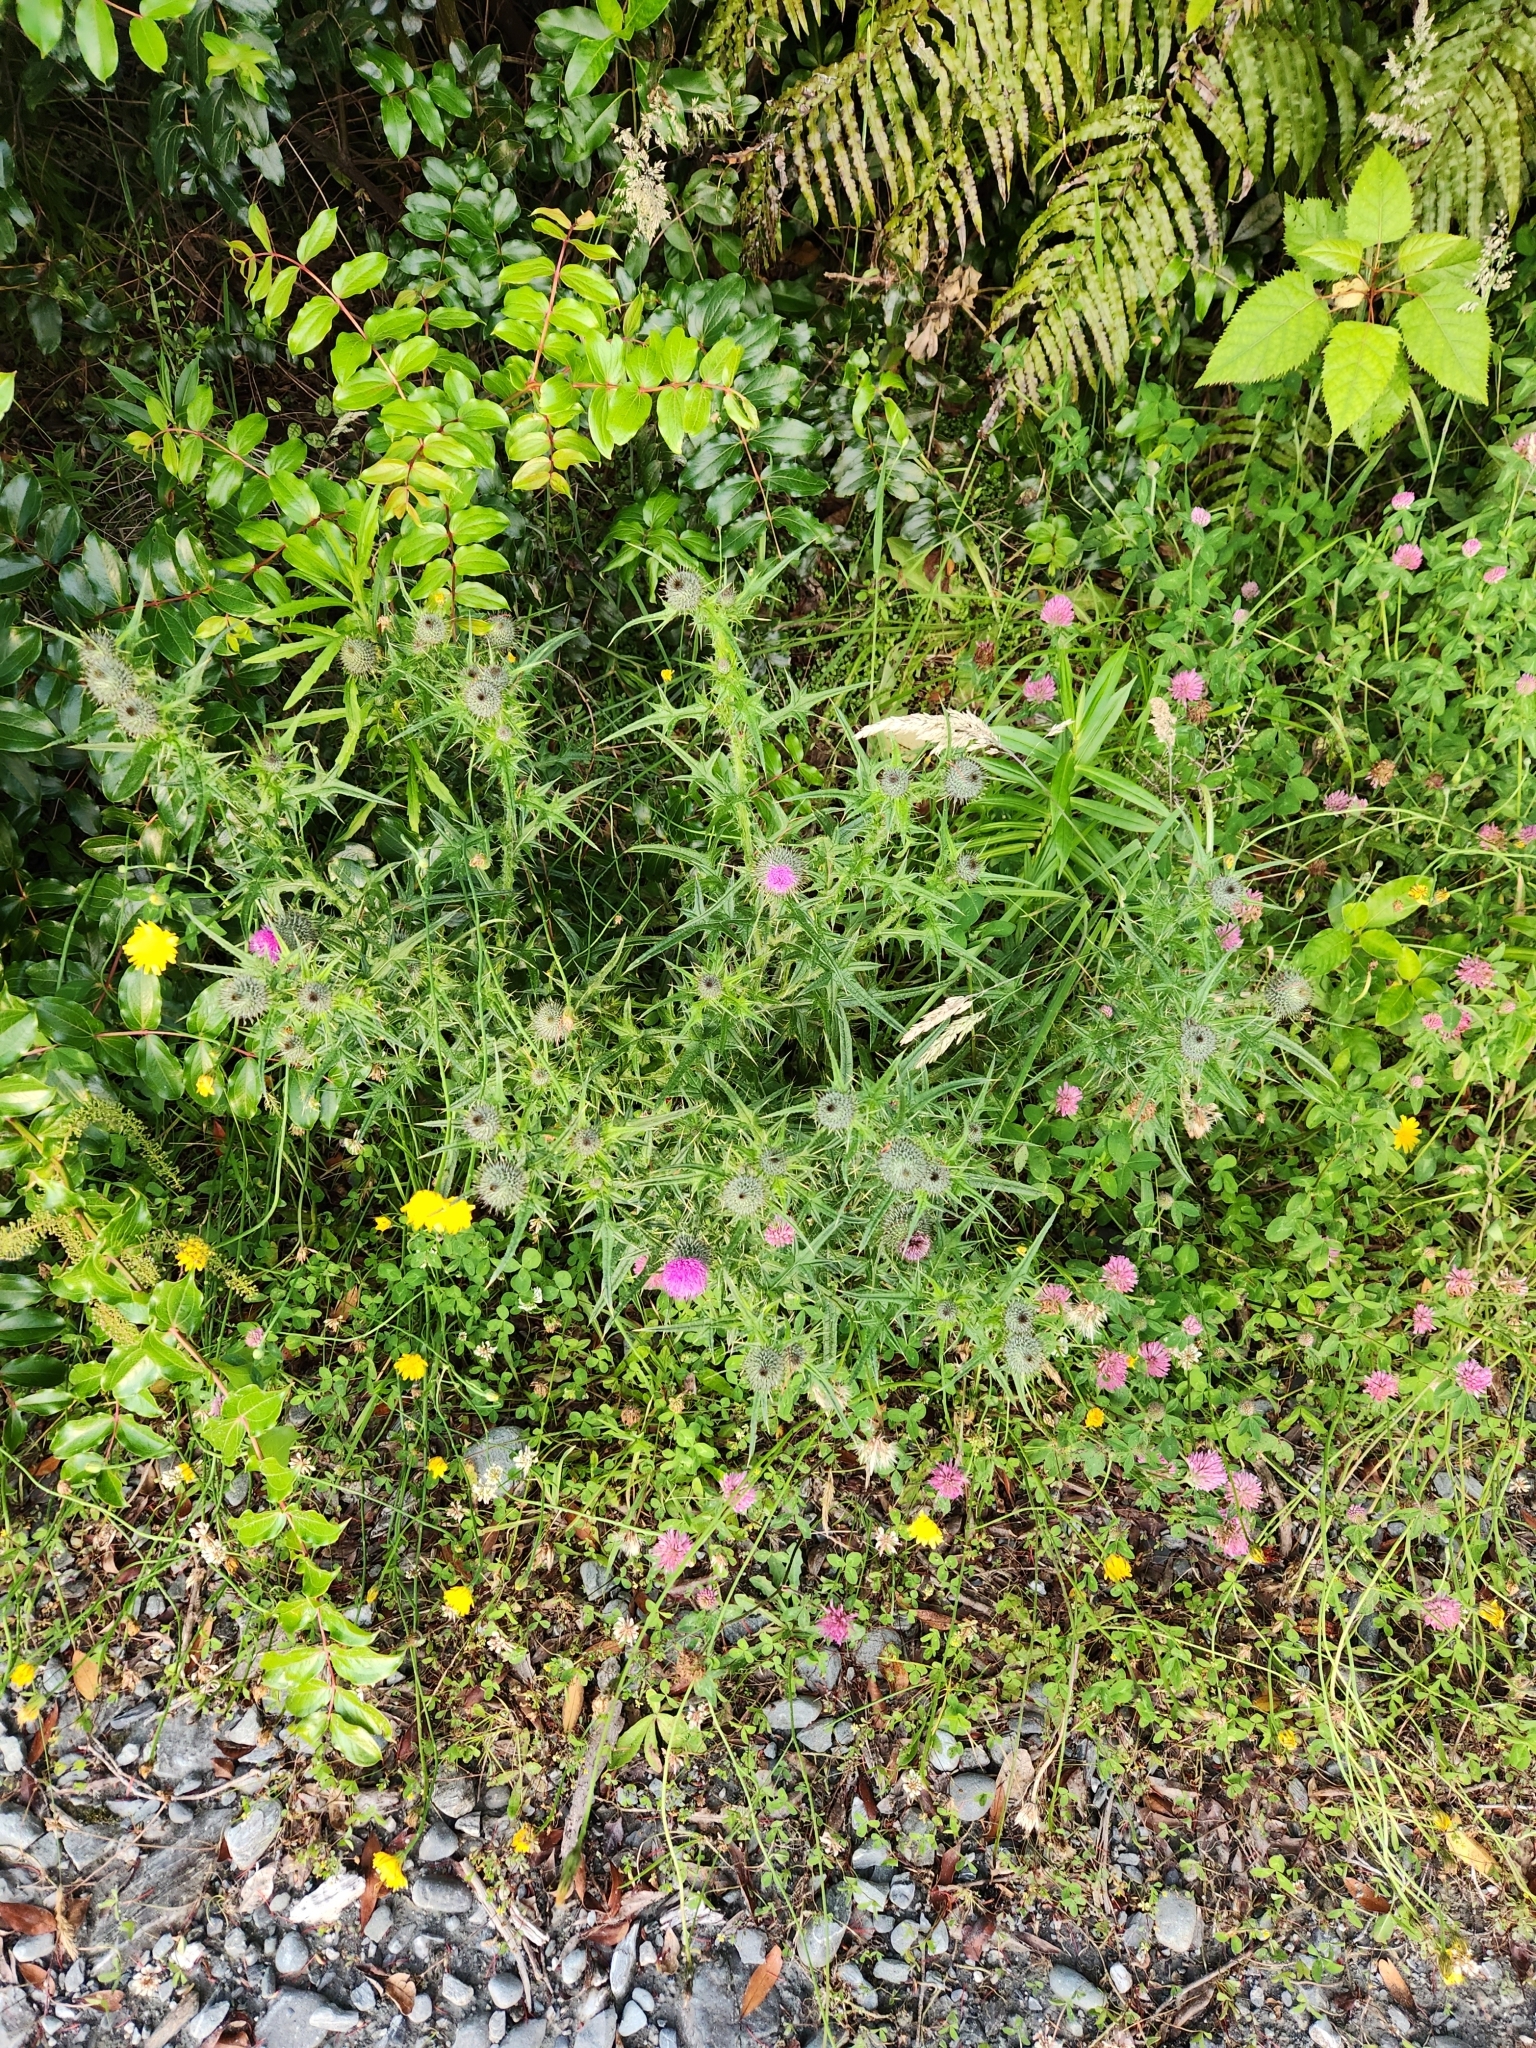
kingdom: Plantae
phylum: Tracheophyta
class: Magnoliopsida
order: Asterales
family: Asteraceae
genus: Cirsium
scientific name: Cirsium vulgare
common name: Bull thistle
